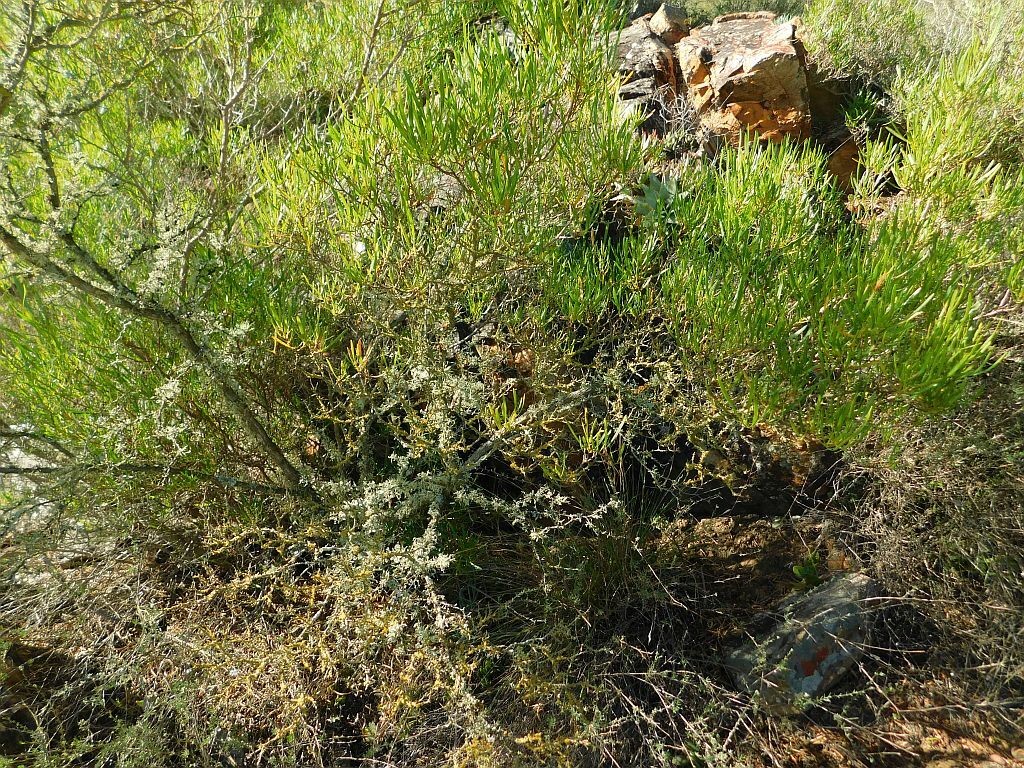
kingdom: Plantae
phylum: Tracheophyta
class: Magnoliopsida
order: Sapindales
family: Sapindaceae
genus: Dodonaea
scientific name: Dodonaea viscosa
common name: Hopbush
